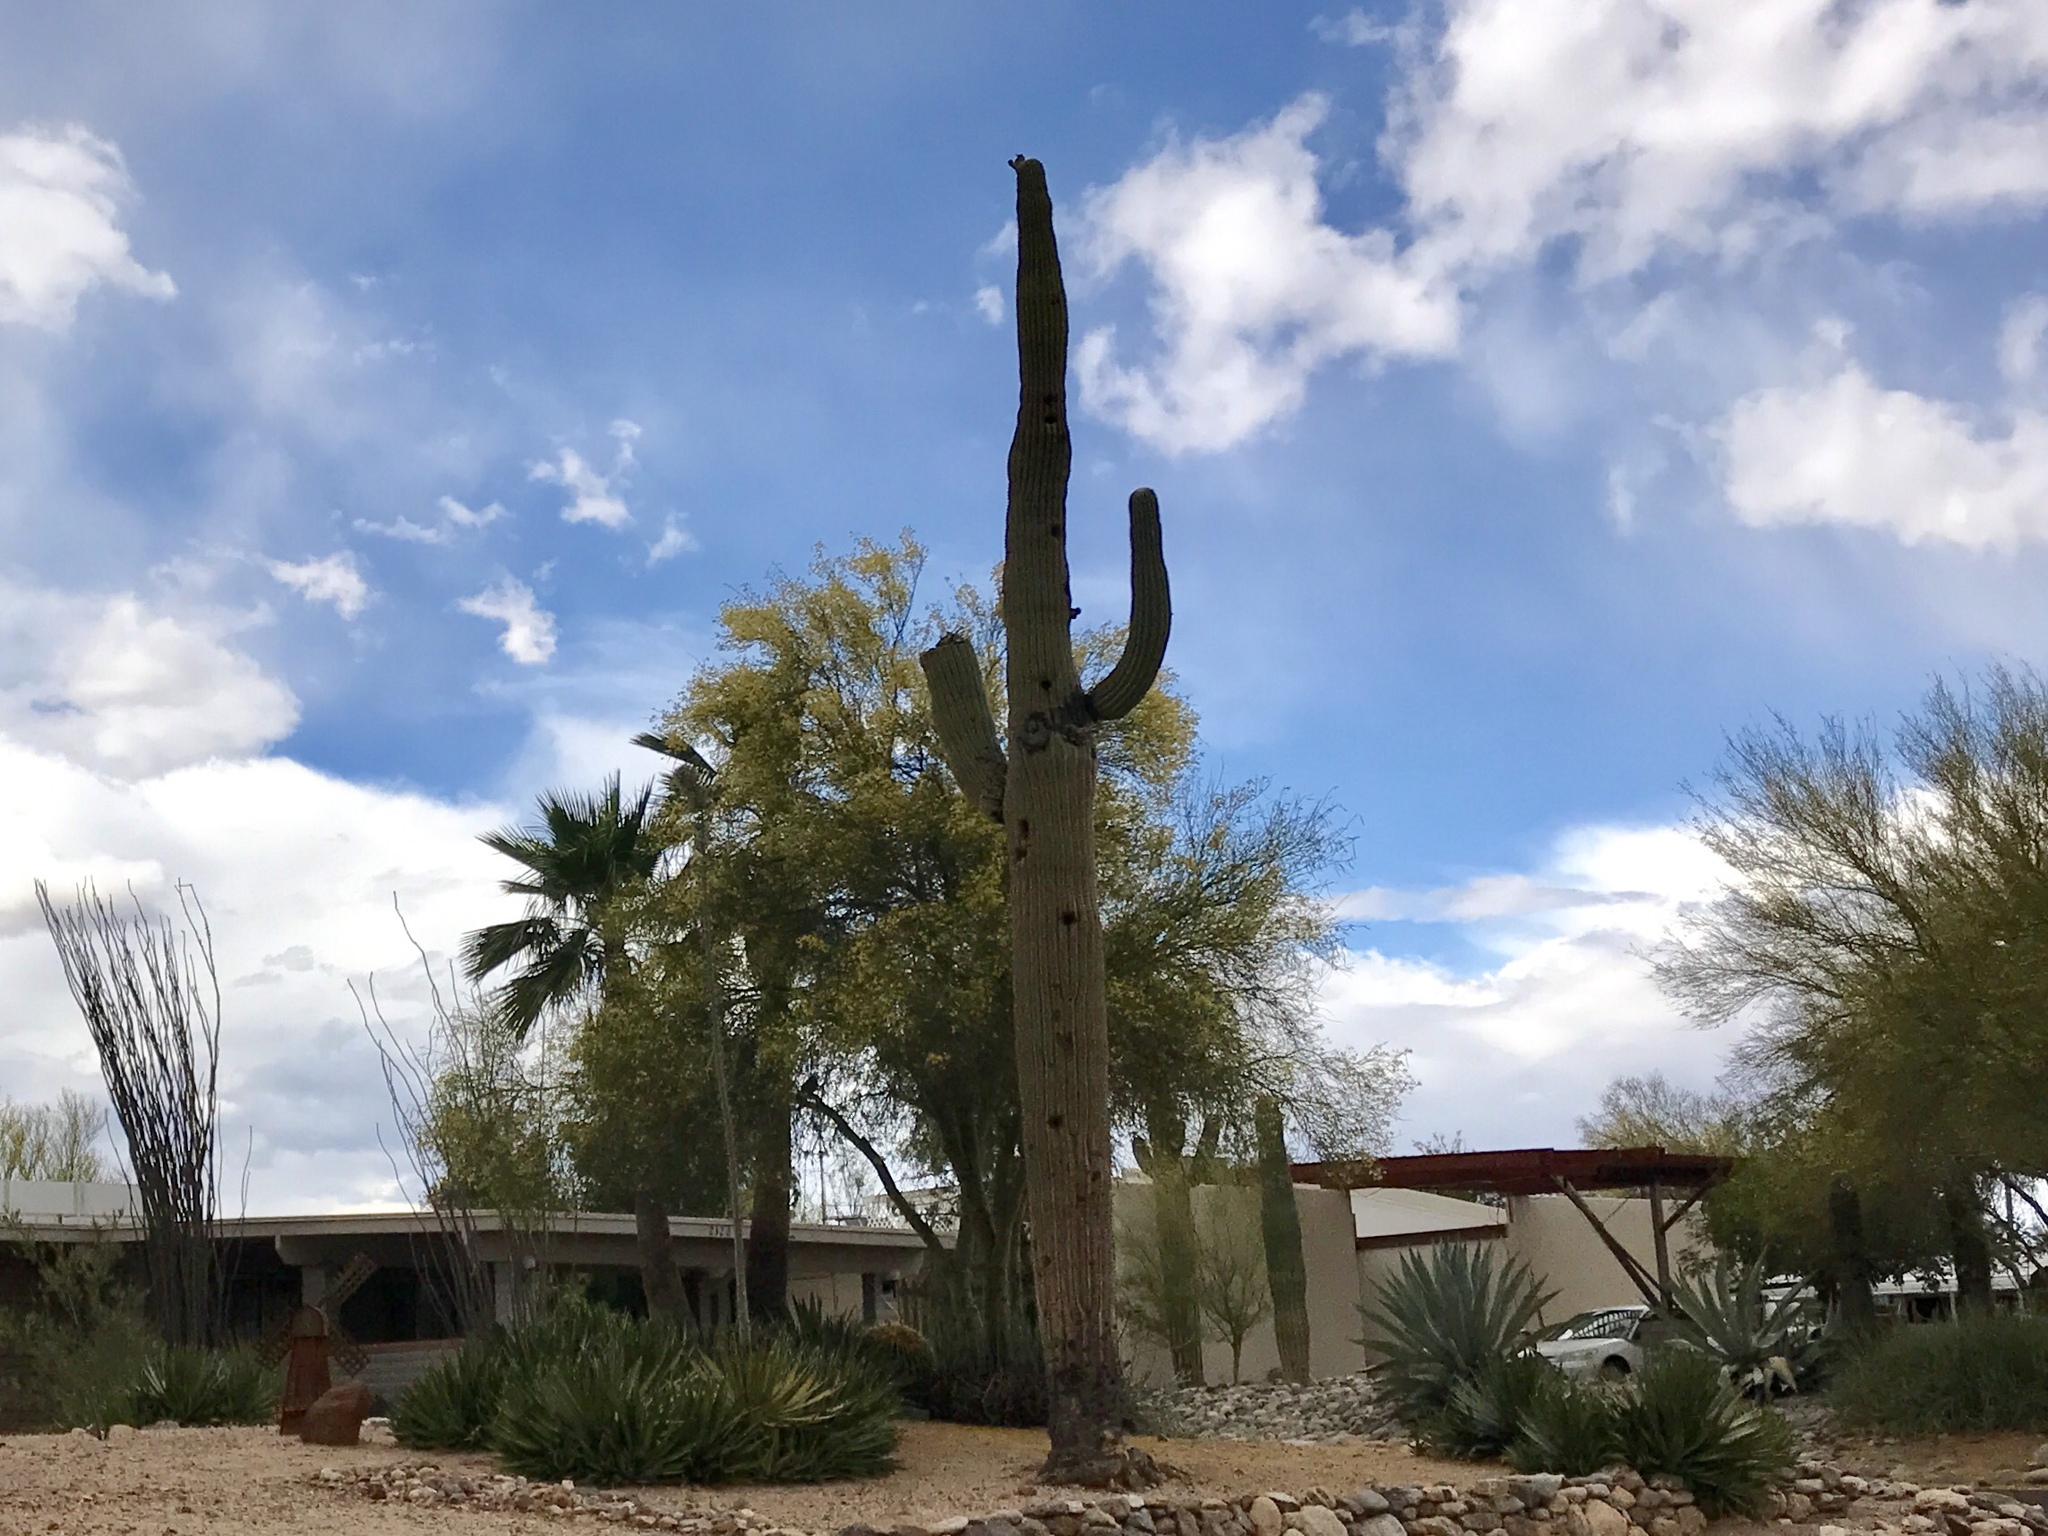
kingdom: Plantae
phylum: Tracheophyta
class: Magnoliopsida
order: Caryophyllales
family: Cactaceae
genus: Carnegiea
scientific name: Carnegiea gigantea
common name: Saguaro
